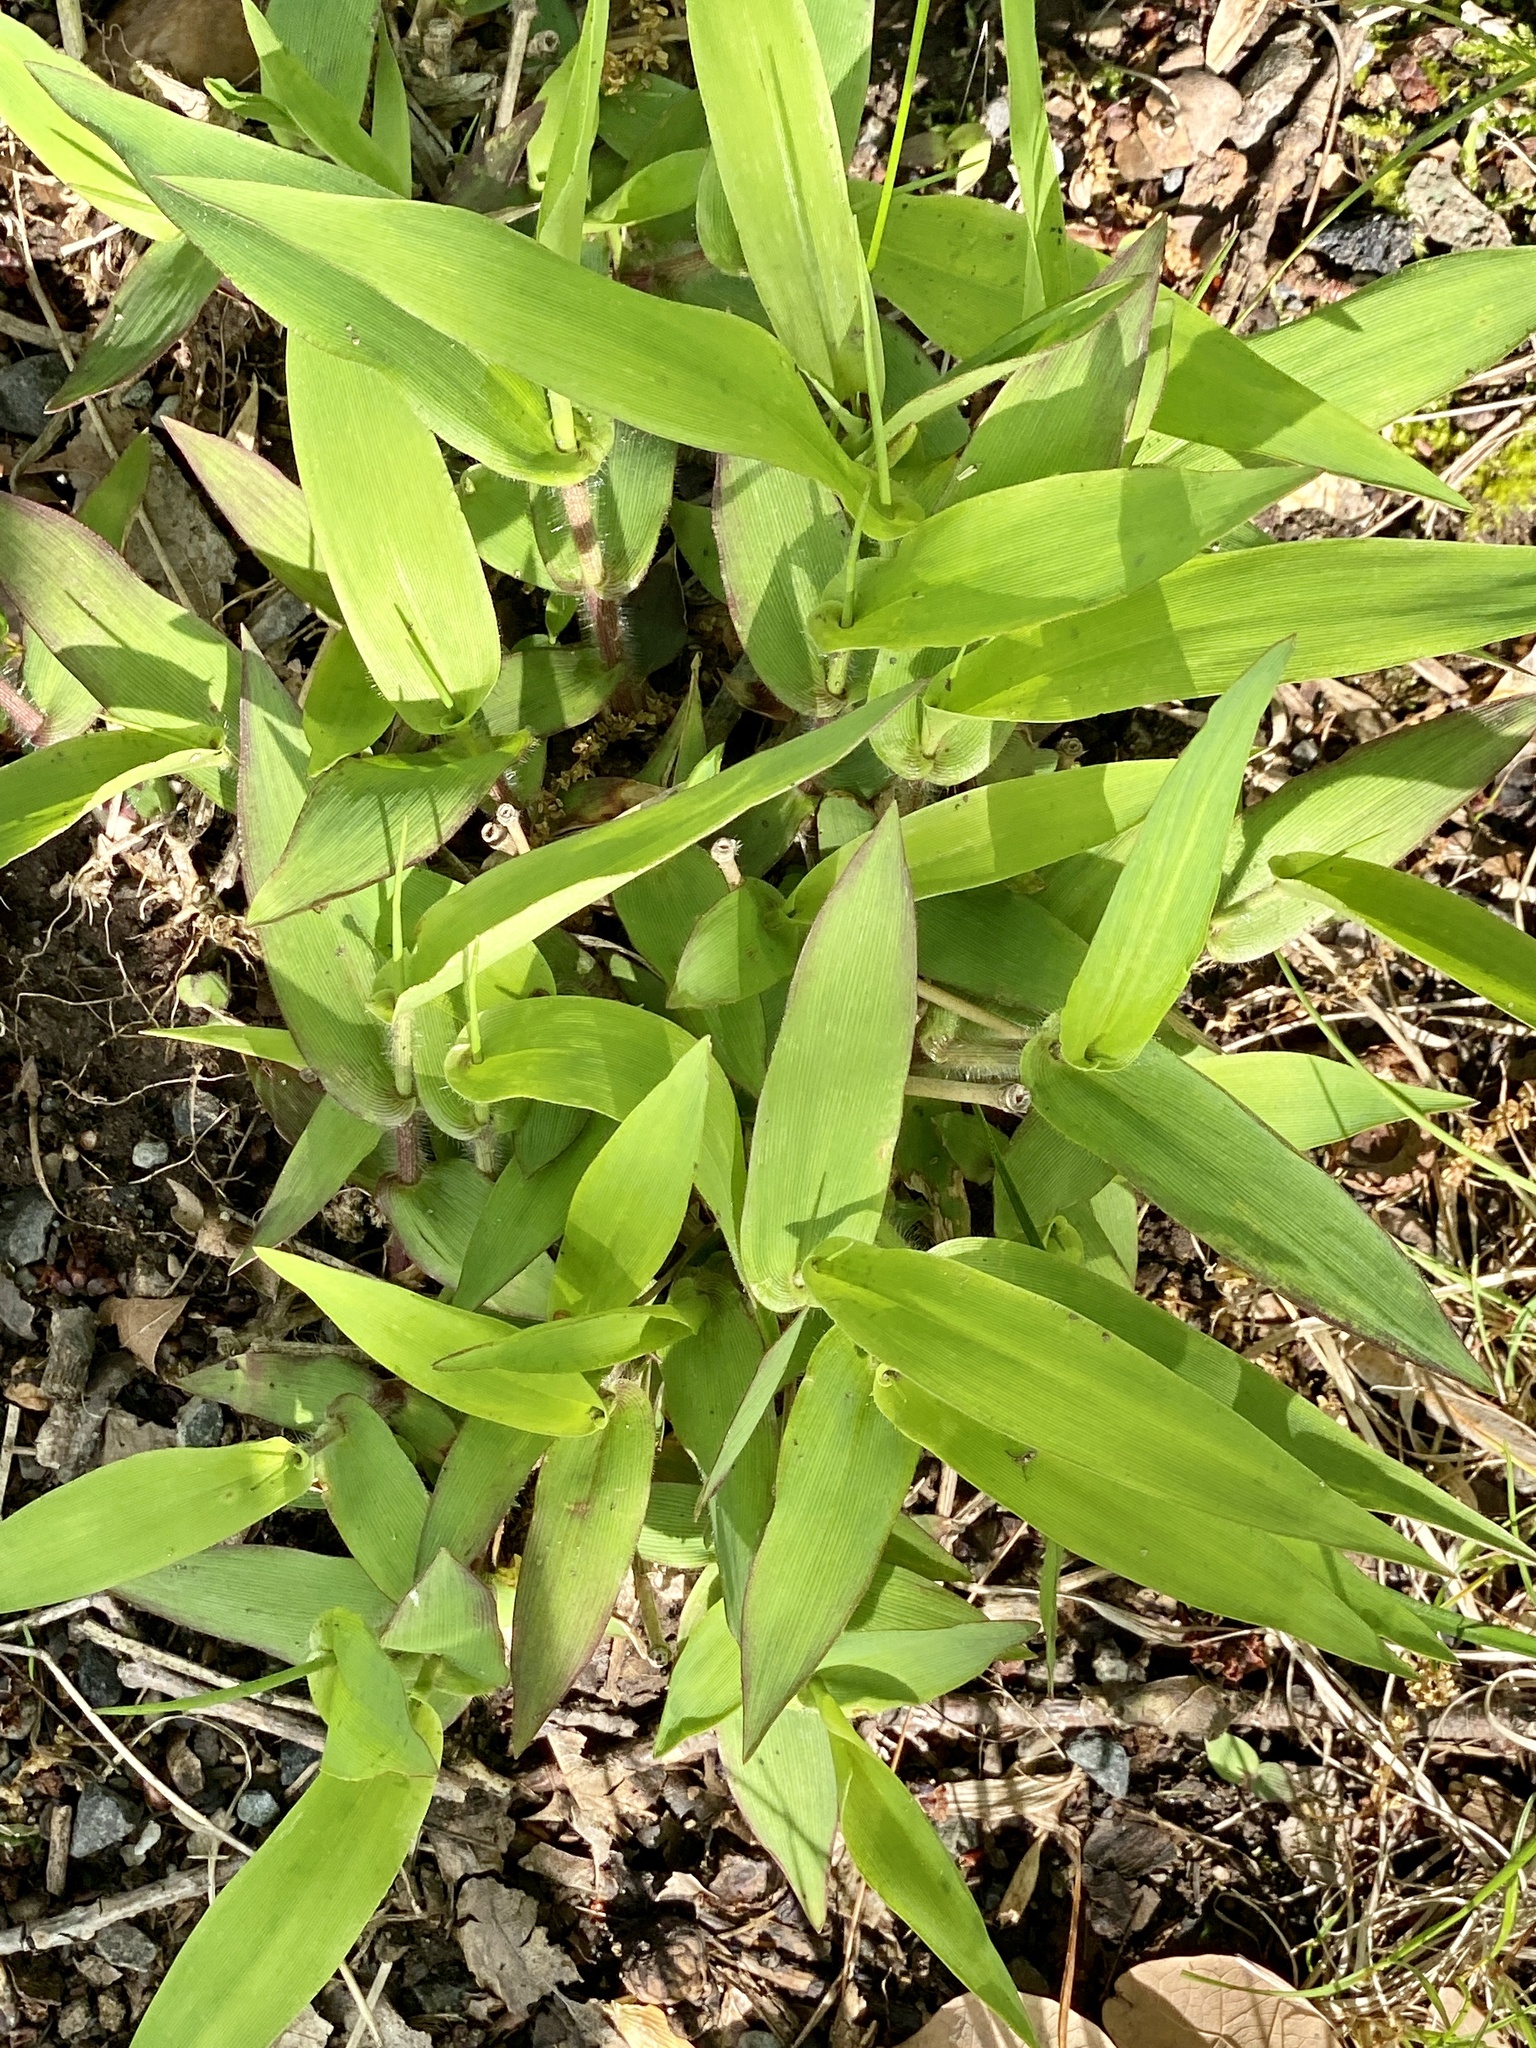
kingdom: Plantae
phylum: Tracheophyta
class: Liliopsida
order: Poales
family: Poaceae
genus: Dichanthelium
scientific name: Dichanthelium clandestinum
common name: Deer-tongue grass
